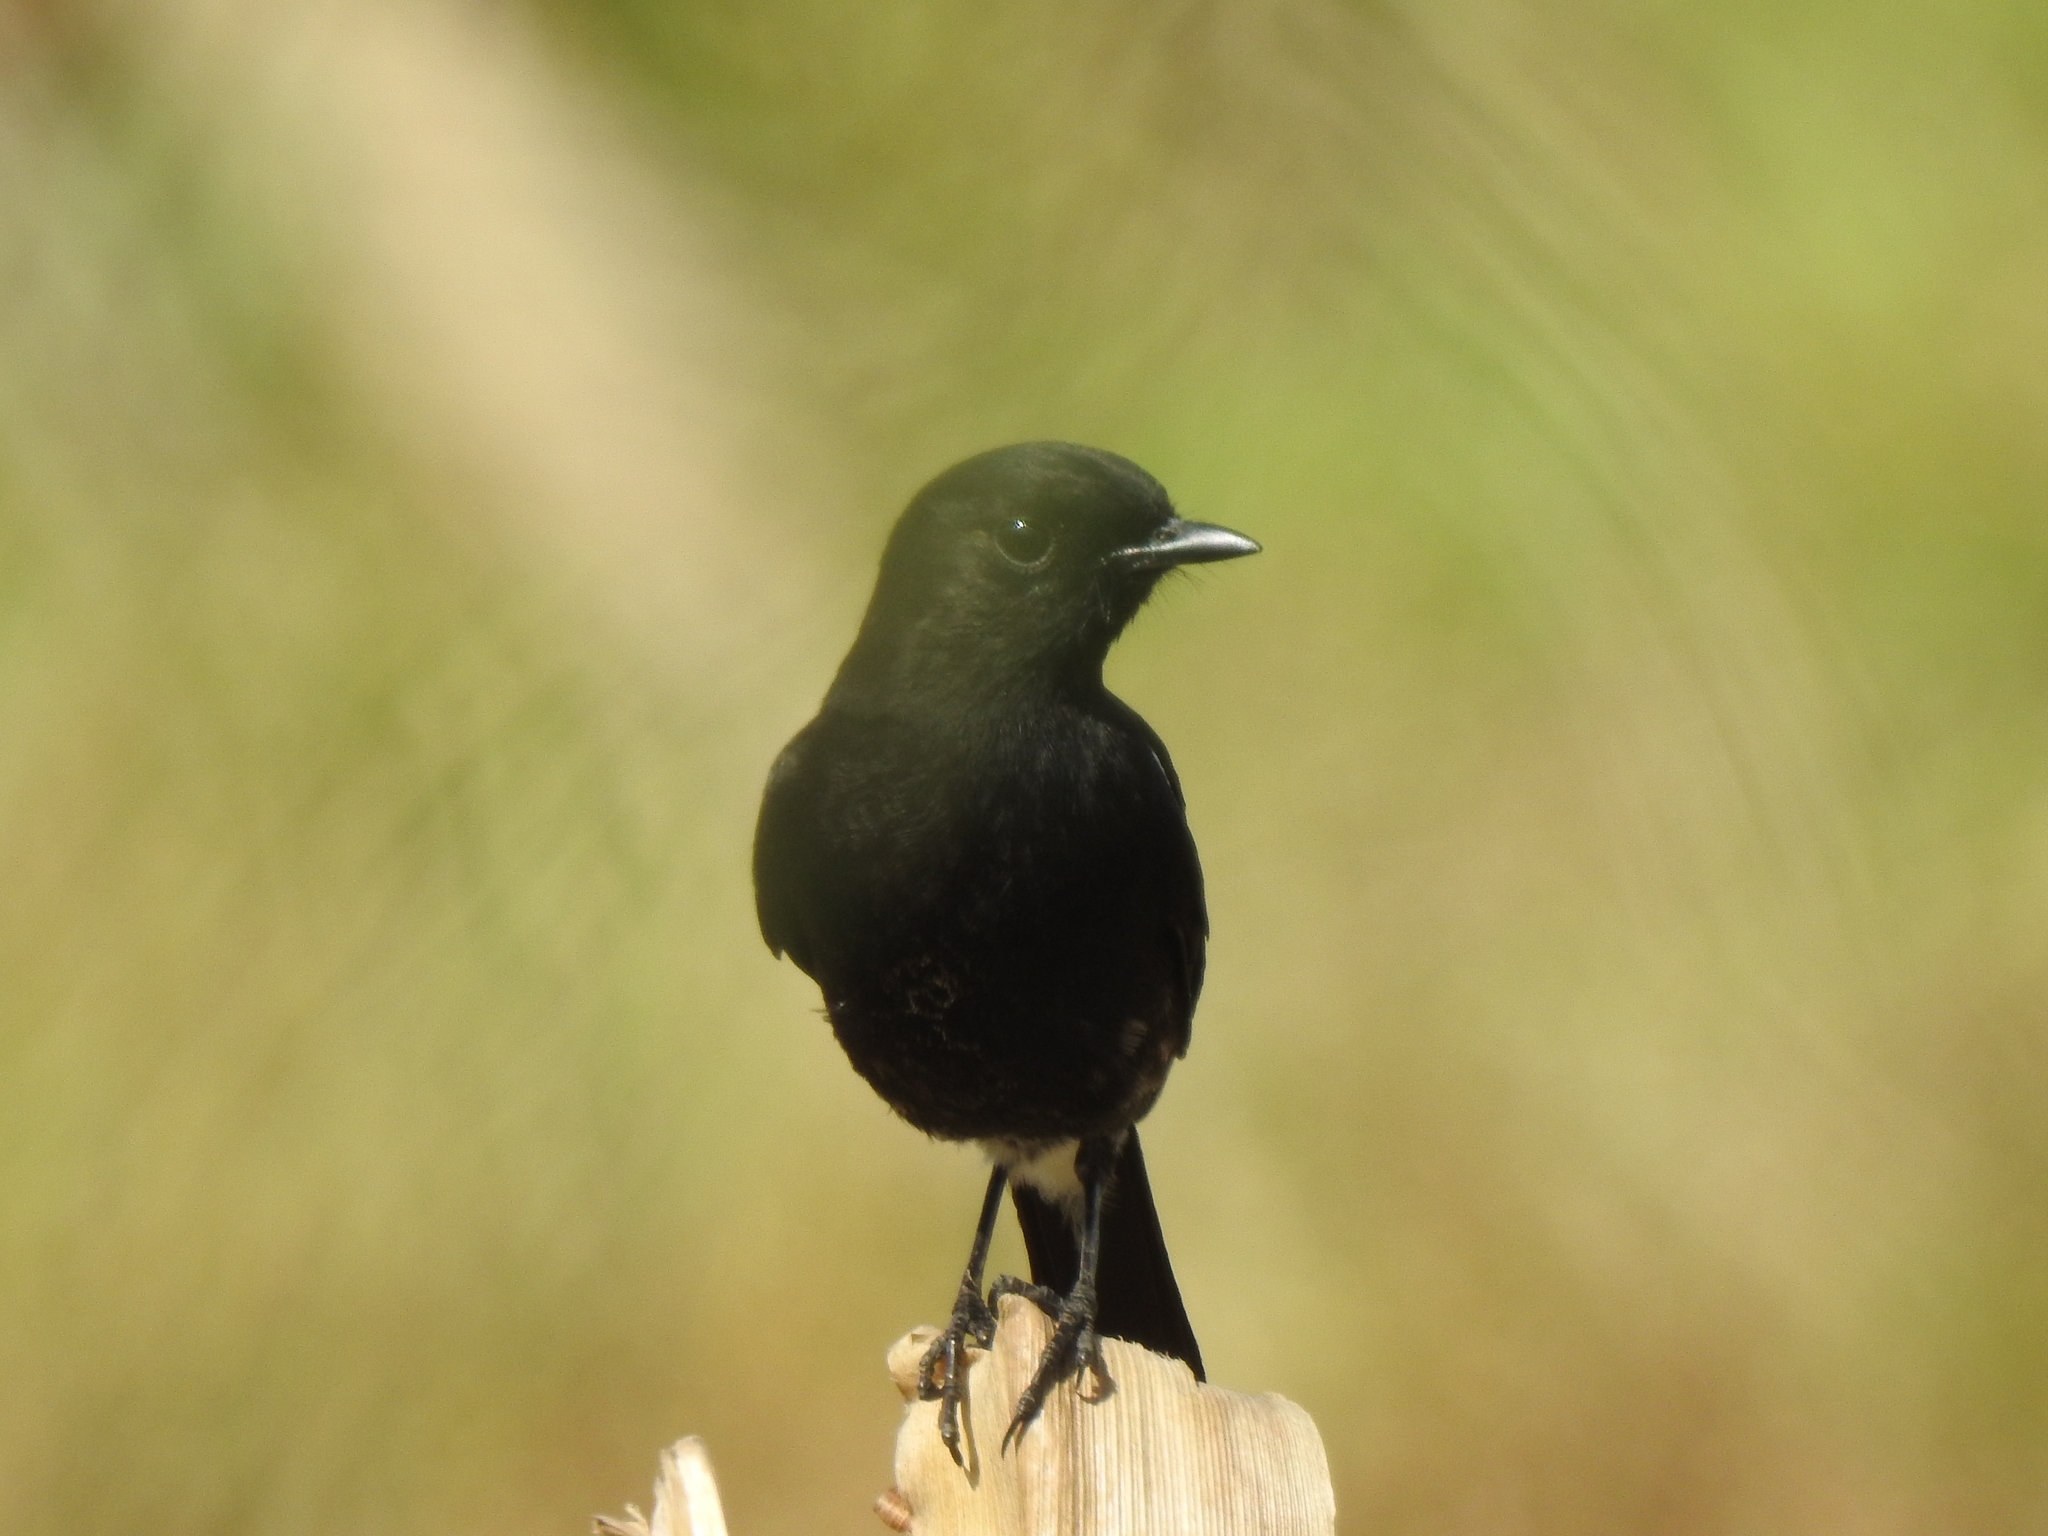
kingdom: Animalia
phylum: Chordata
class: Aves
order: Passeriformes
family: Muscicapidae
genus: Saxicola
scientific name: Saxicola caprata
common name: Pied bush chat
